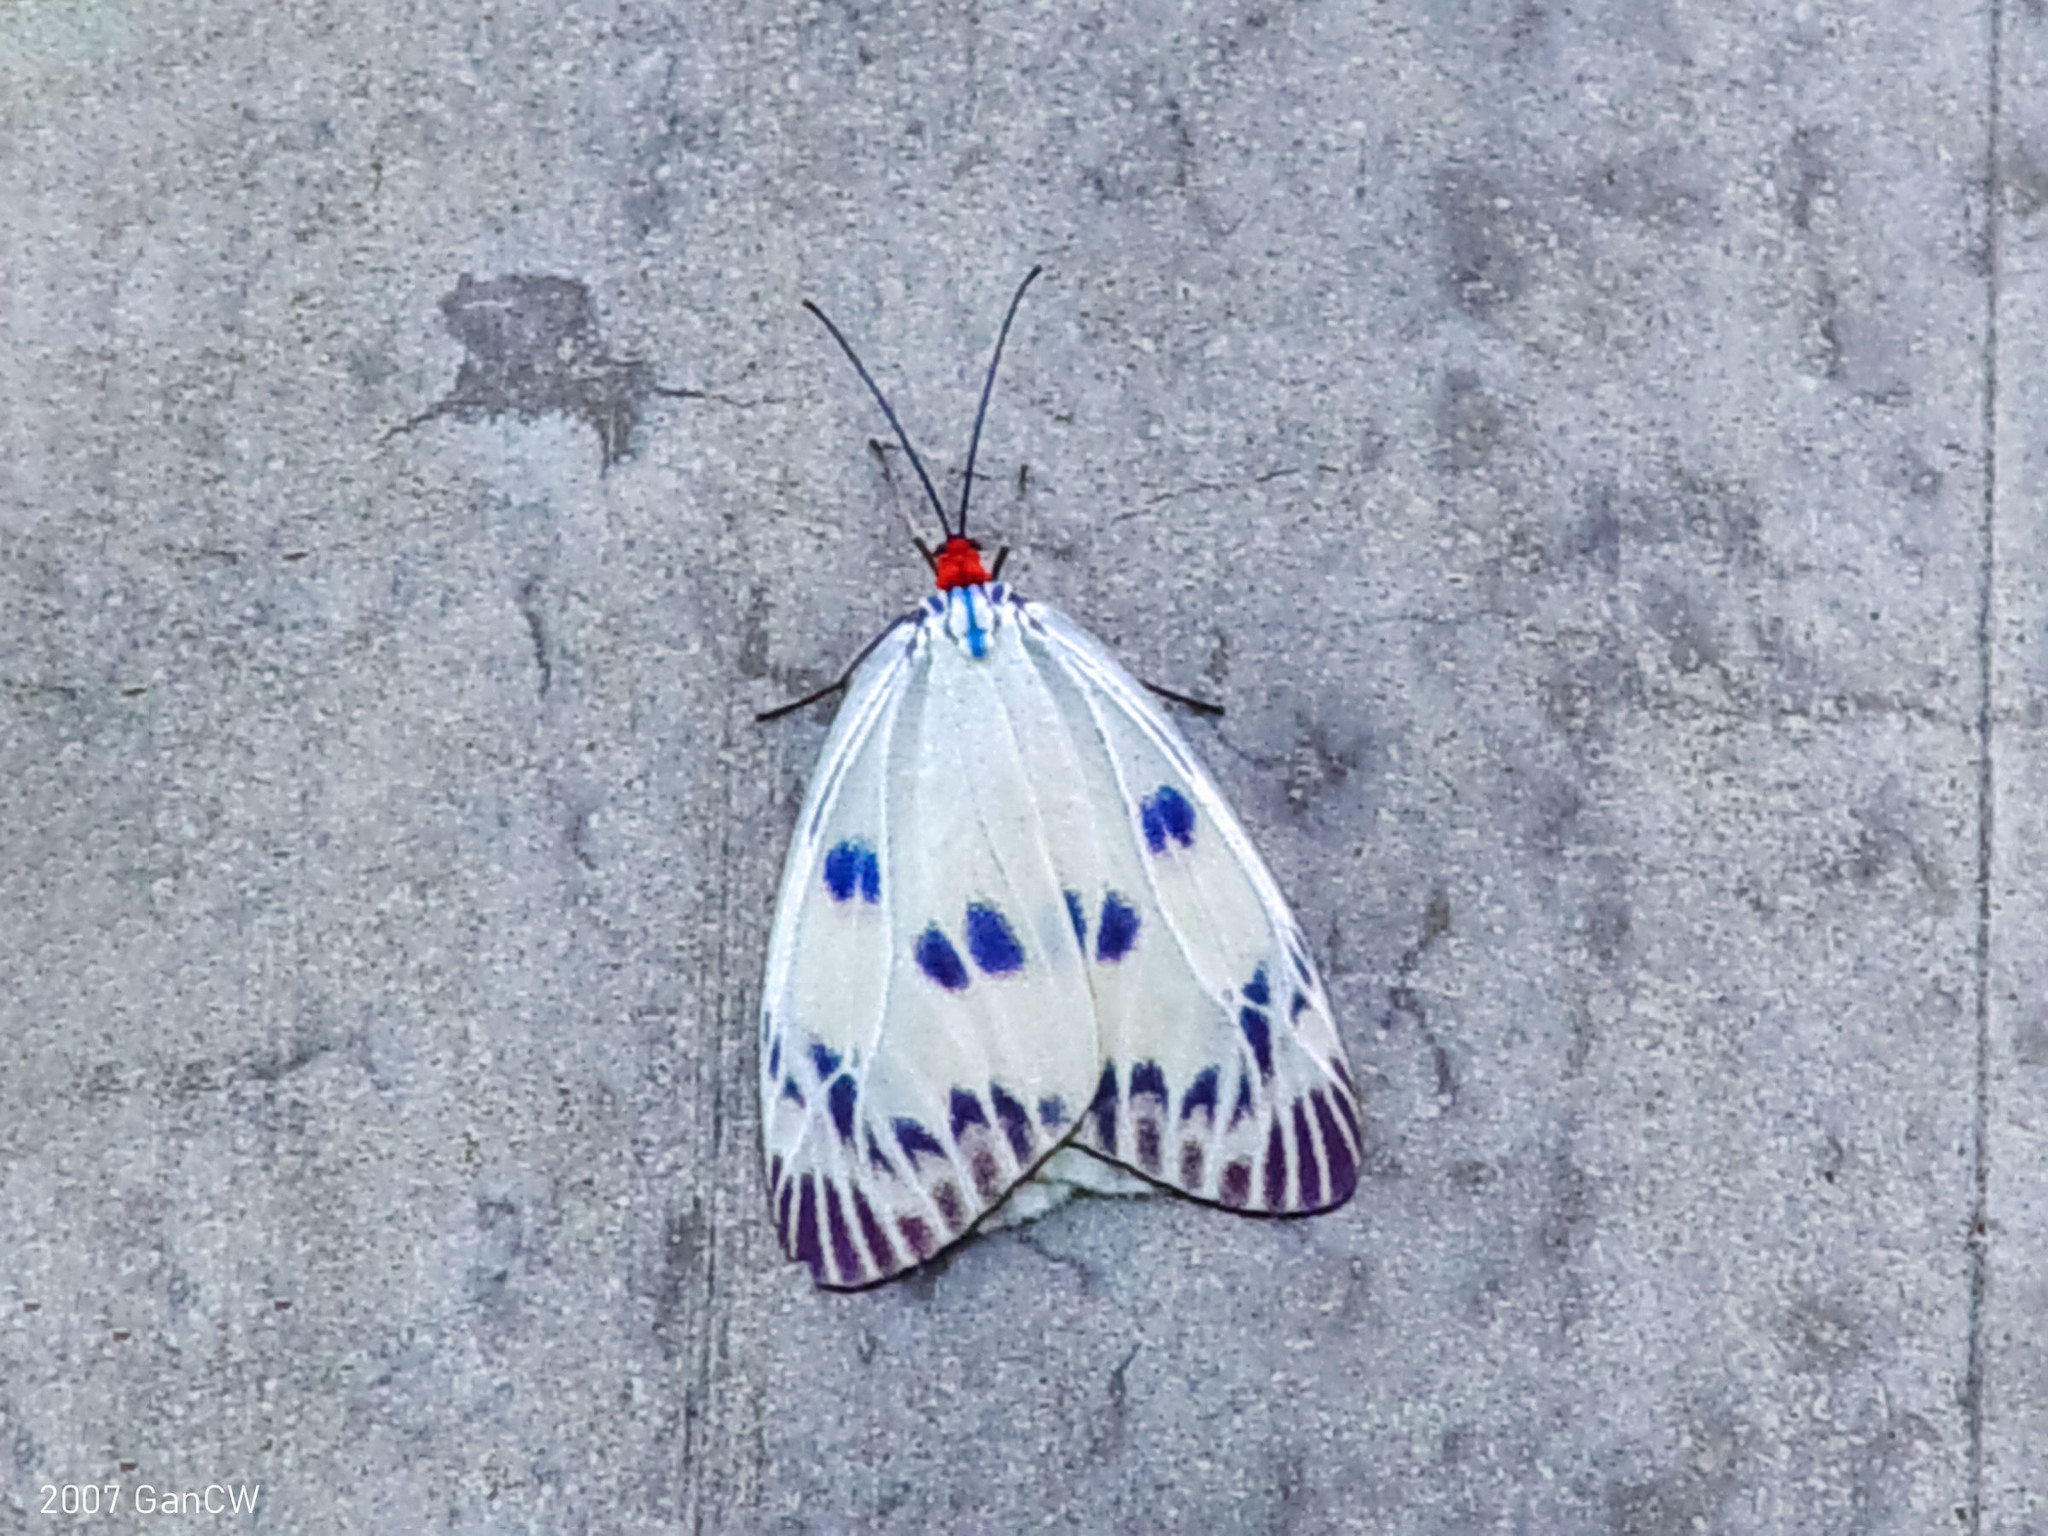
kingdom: Animalia
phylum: Arthropoda
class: Insecta
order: Lepidoptera
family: Zygaenidae
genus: Chalcosia
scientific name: Chalcosia phalaenaria
